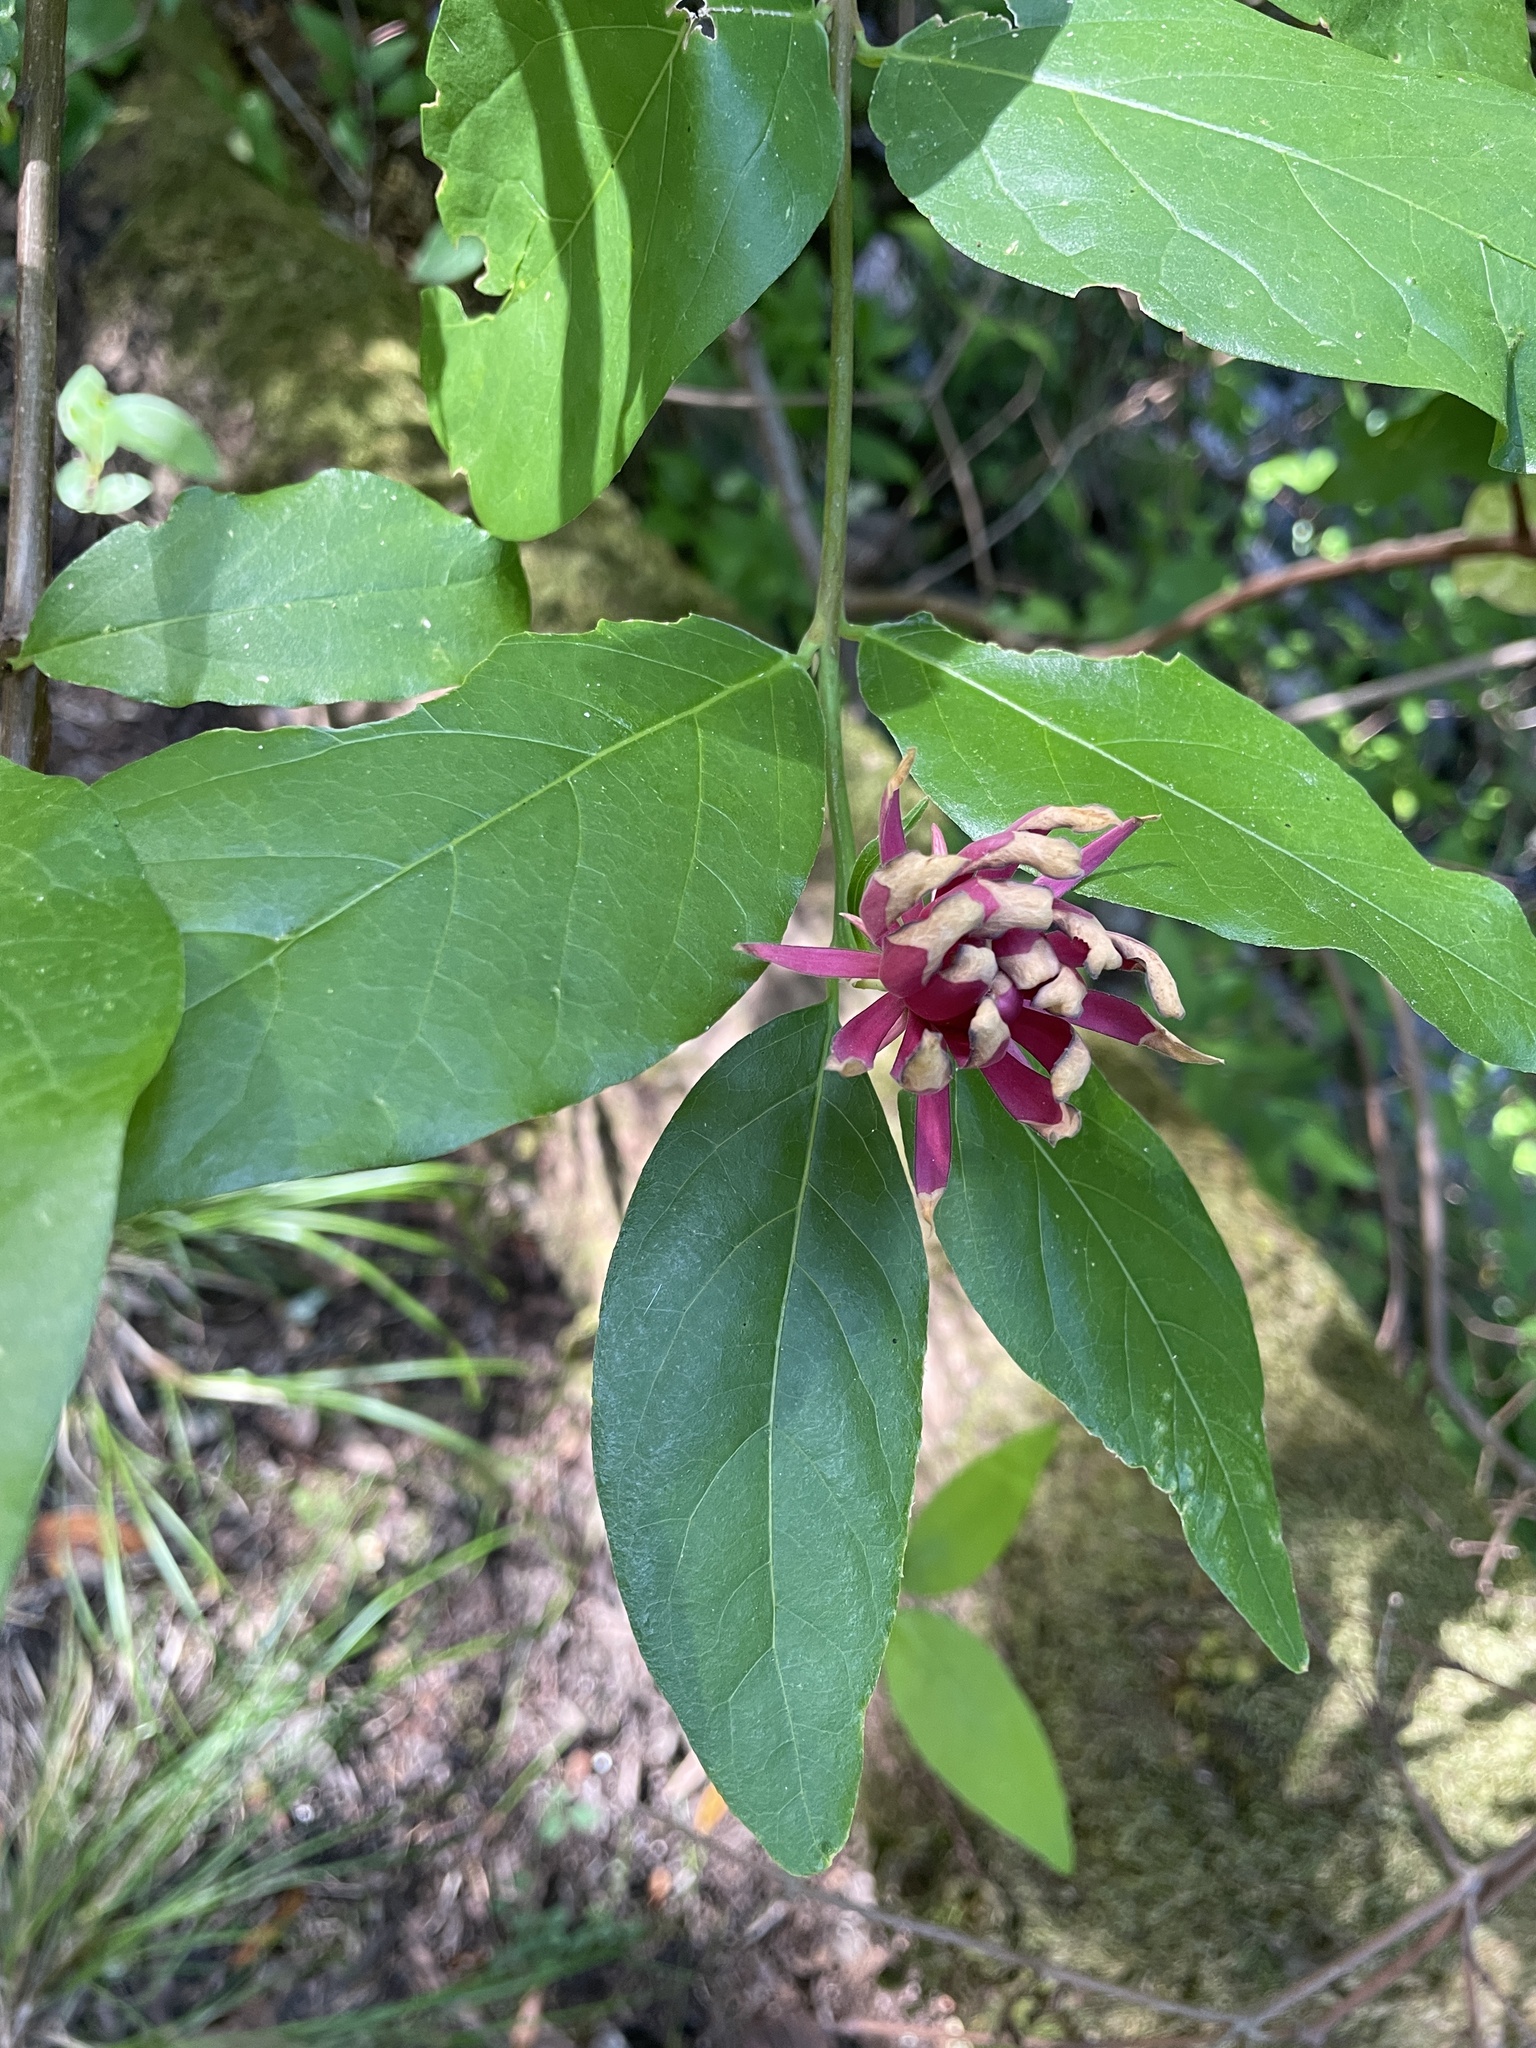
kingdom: Plantae
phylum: Tracheophyta
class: Magnoliopsida
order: Laurales
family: Calycanthaceae
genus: Calycanthus
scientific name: Calycanthus occidentalis
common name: California spicebush
